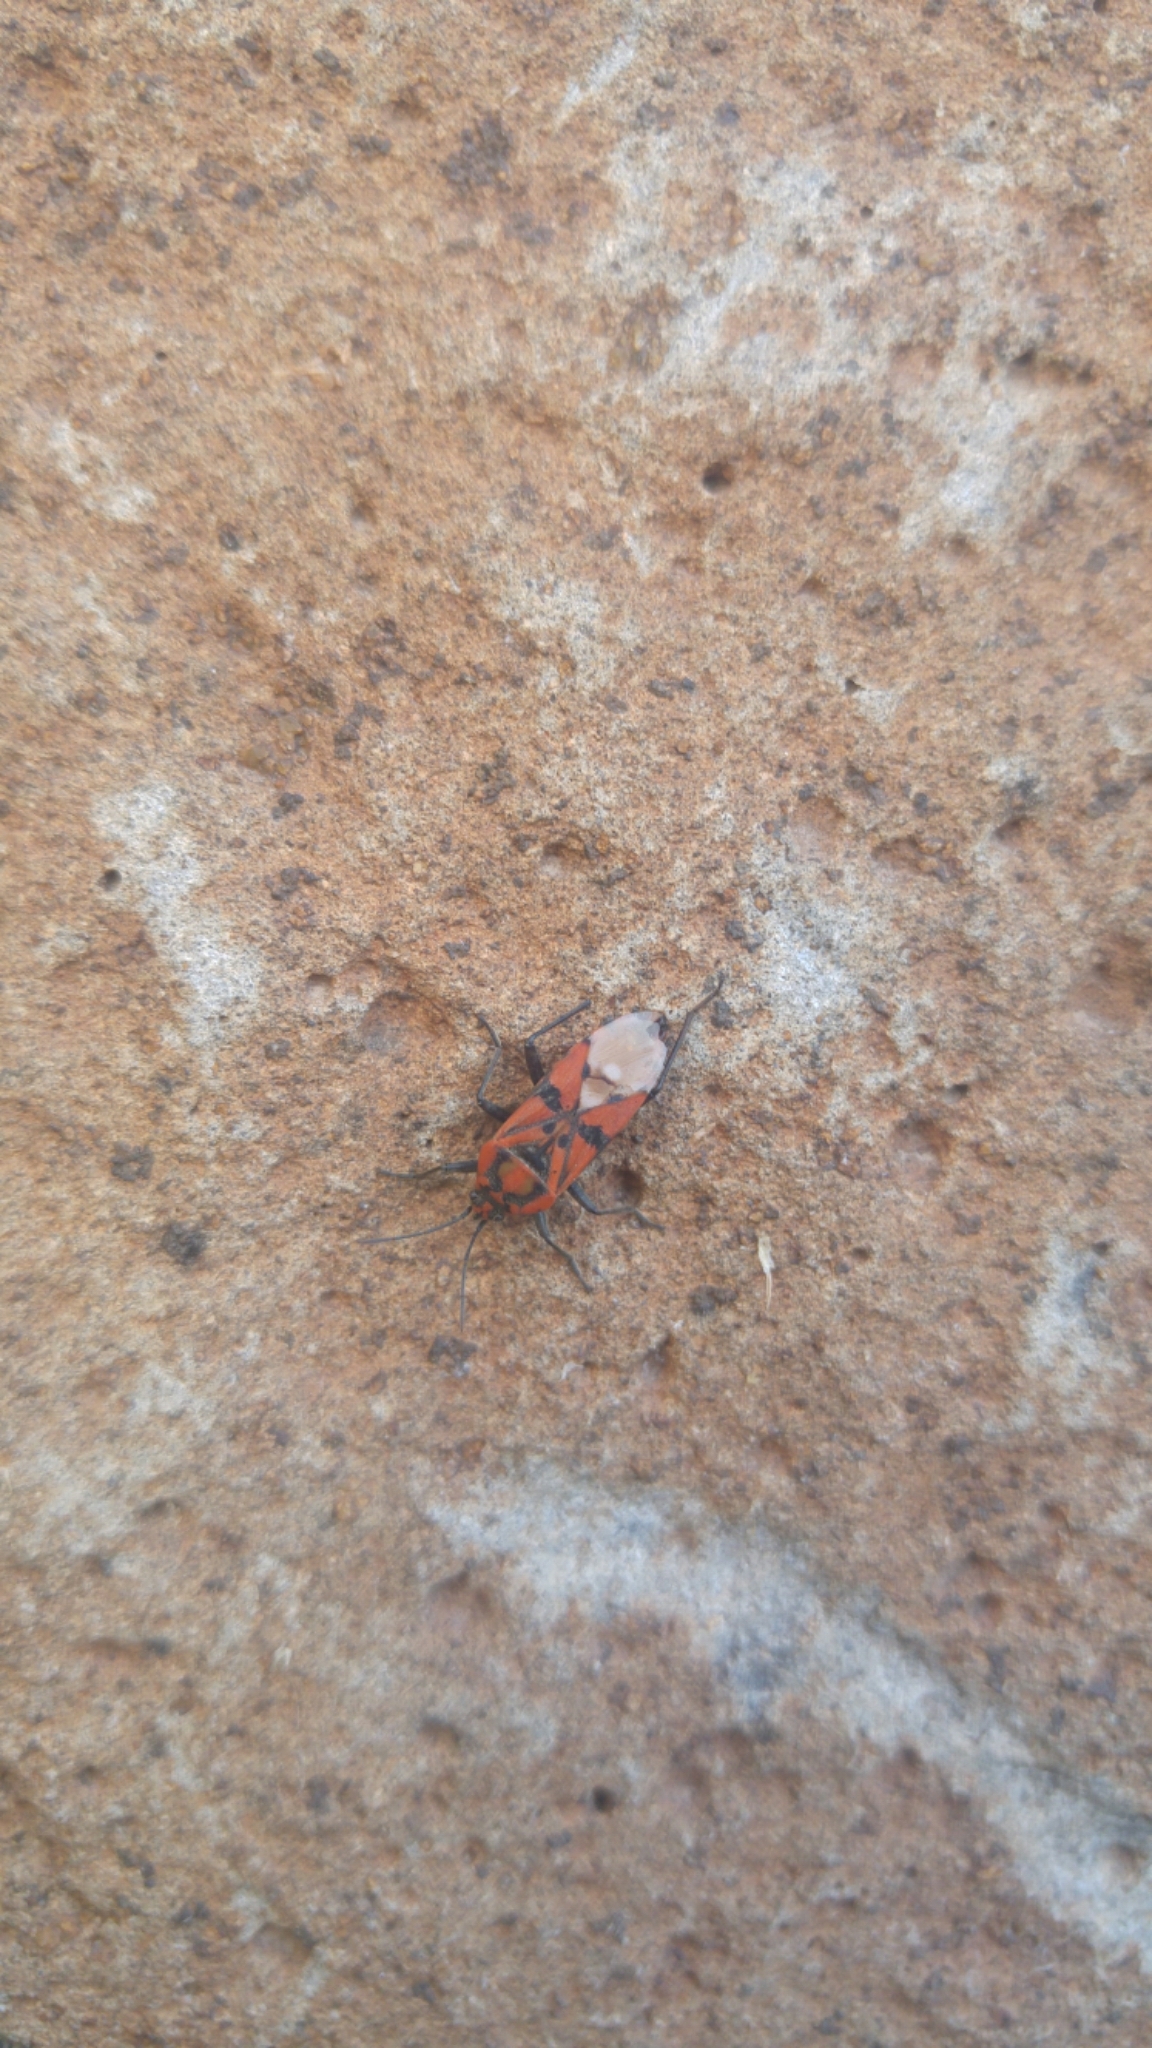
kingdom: Animalia
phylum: Arthropoda
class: Insecta
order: Hemiptera
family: Lygaeidae
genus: Spilostethus
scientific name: Spilostethus pandurus
